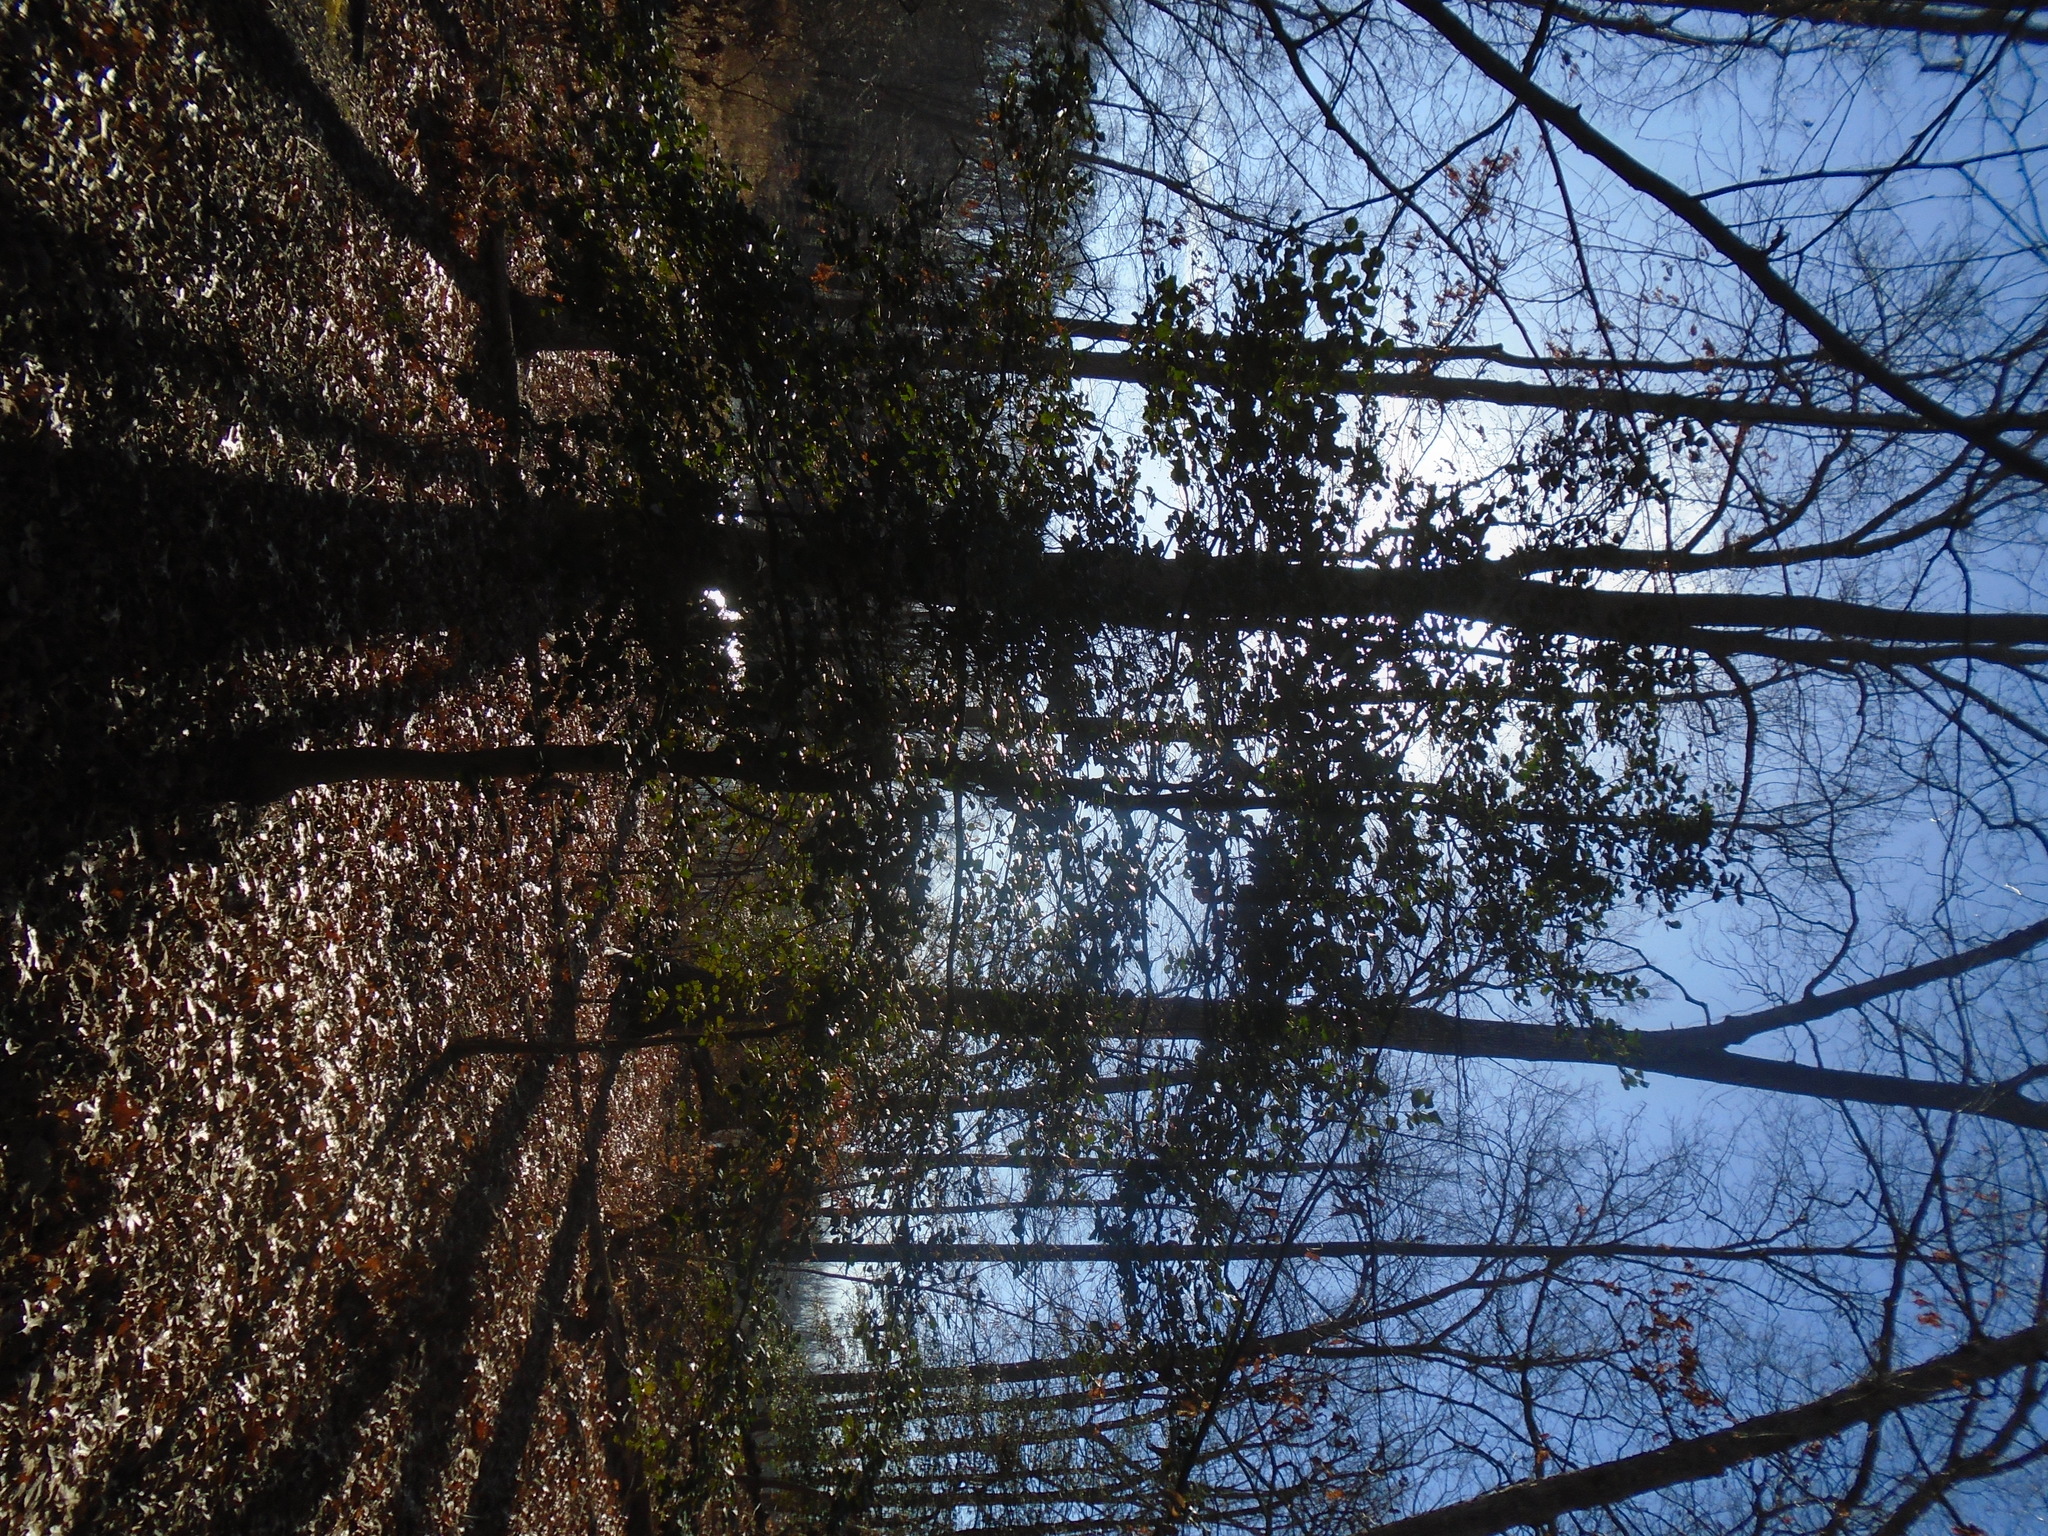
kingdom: Plantae
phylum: Tracheophyta
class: Magnoliopsida
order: Aquifoliales
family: Aquifoliaceae
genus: Ilex
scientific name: Ilex opaca
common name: American holly
